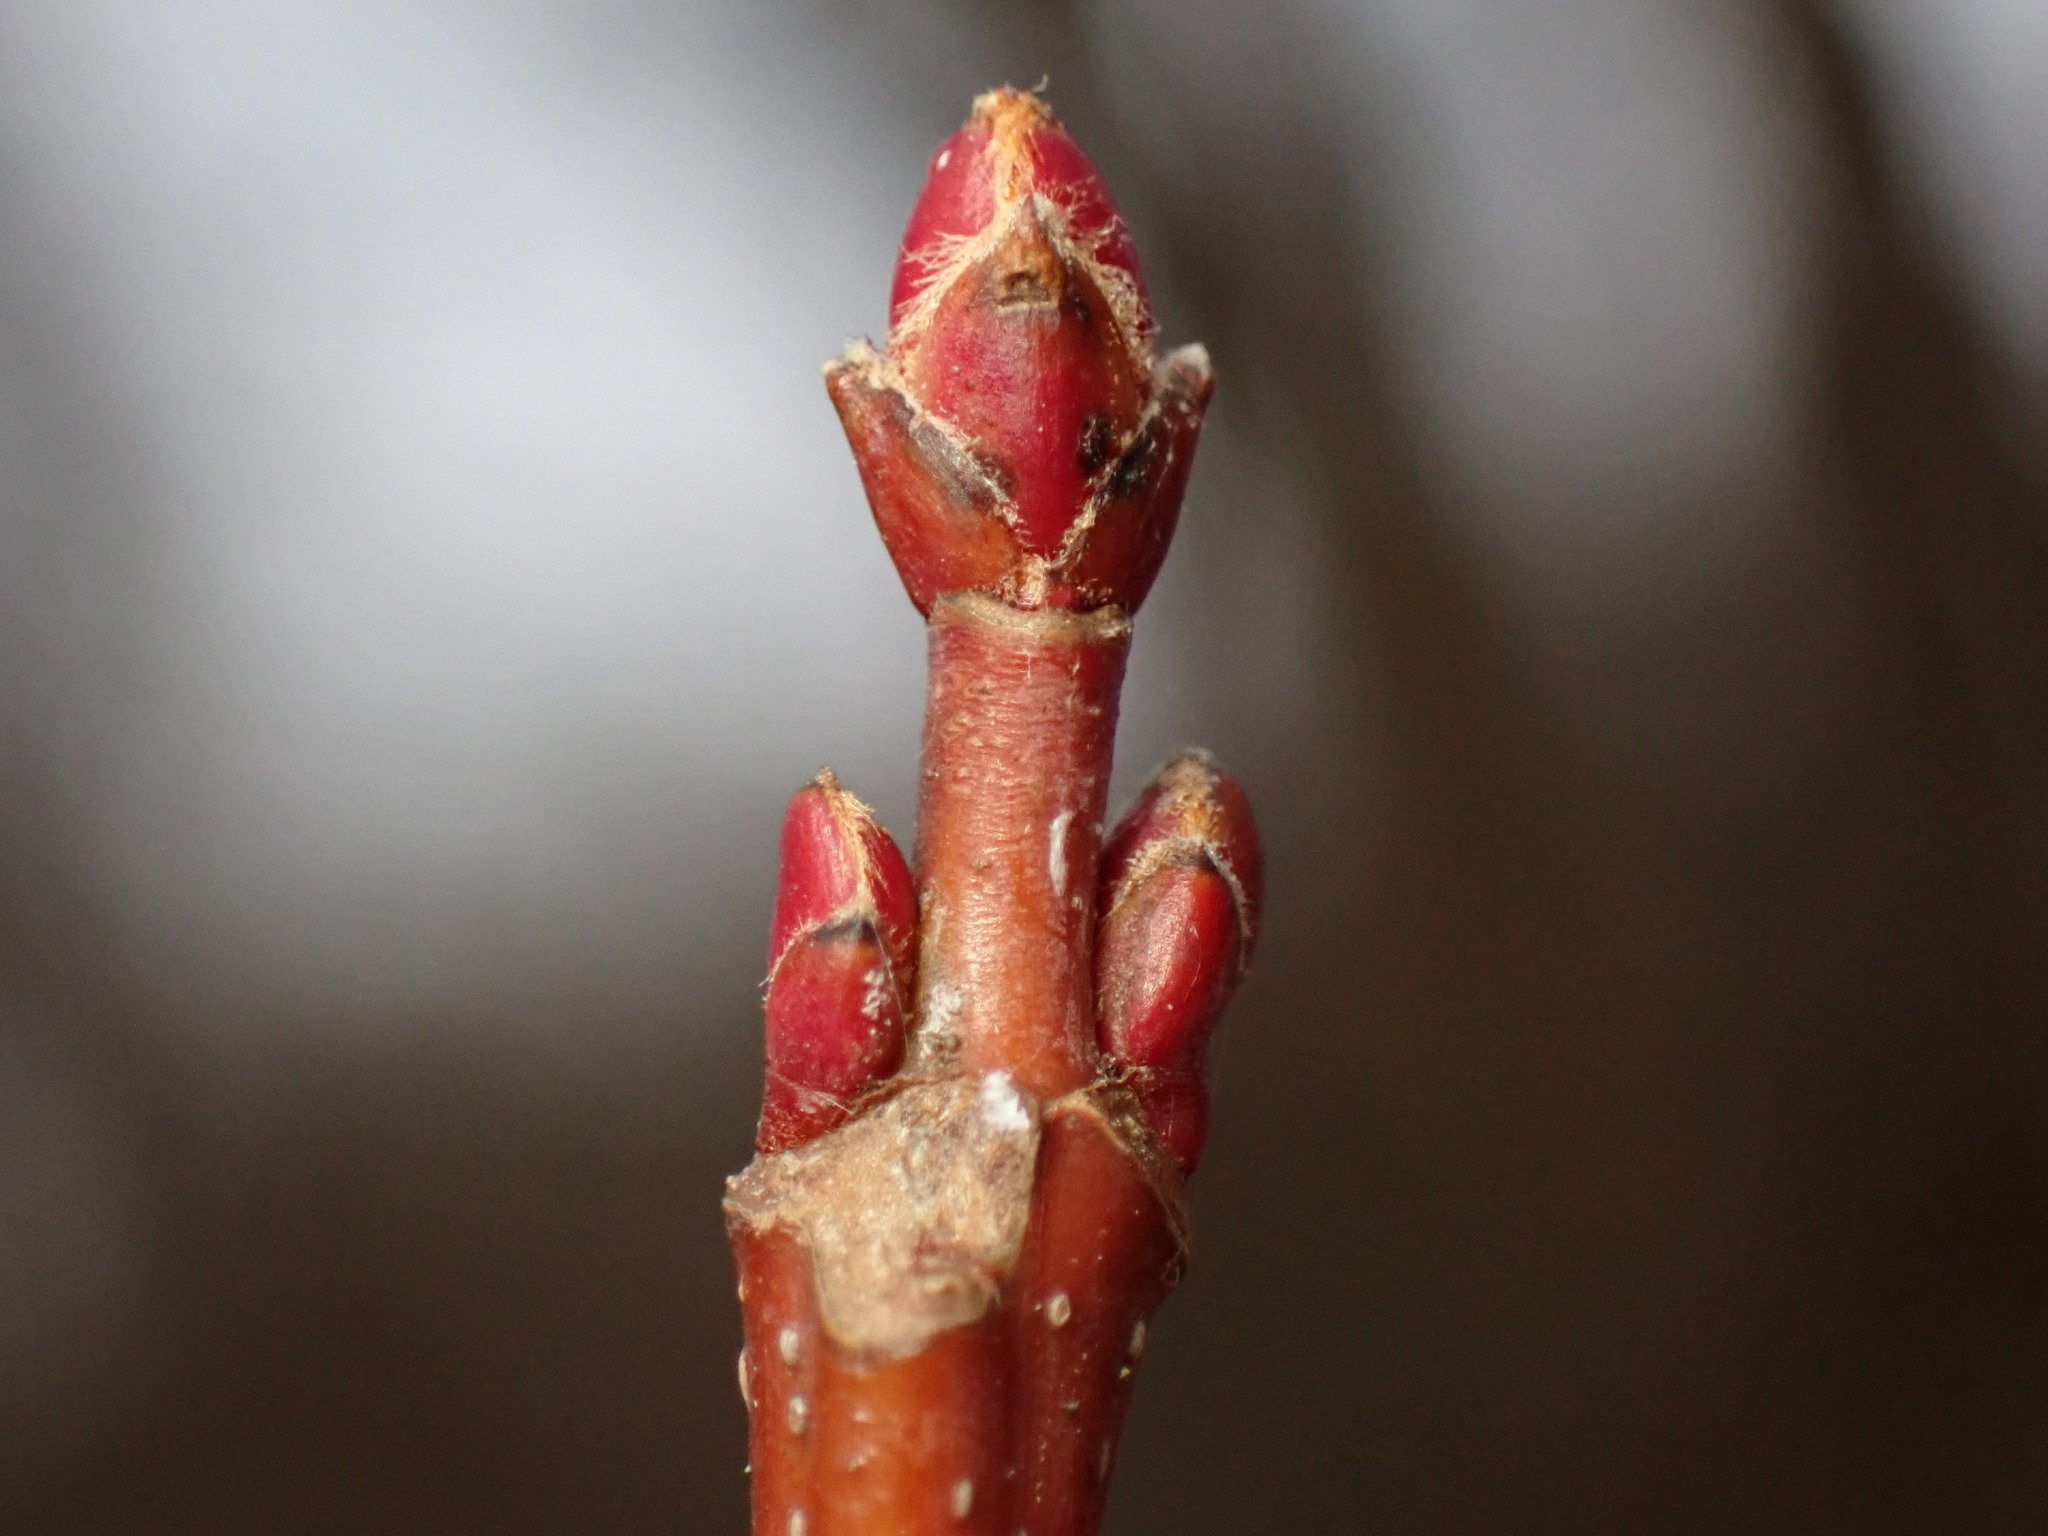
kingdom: Plantae
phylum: Tracheophyta
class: Magnoliopsida
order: Sapindales
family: Sapindaceae
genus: Acer
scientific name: Acer rubrum
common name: Red maple
